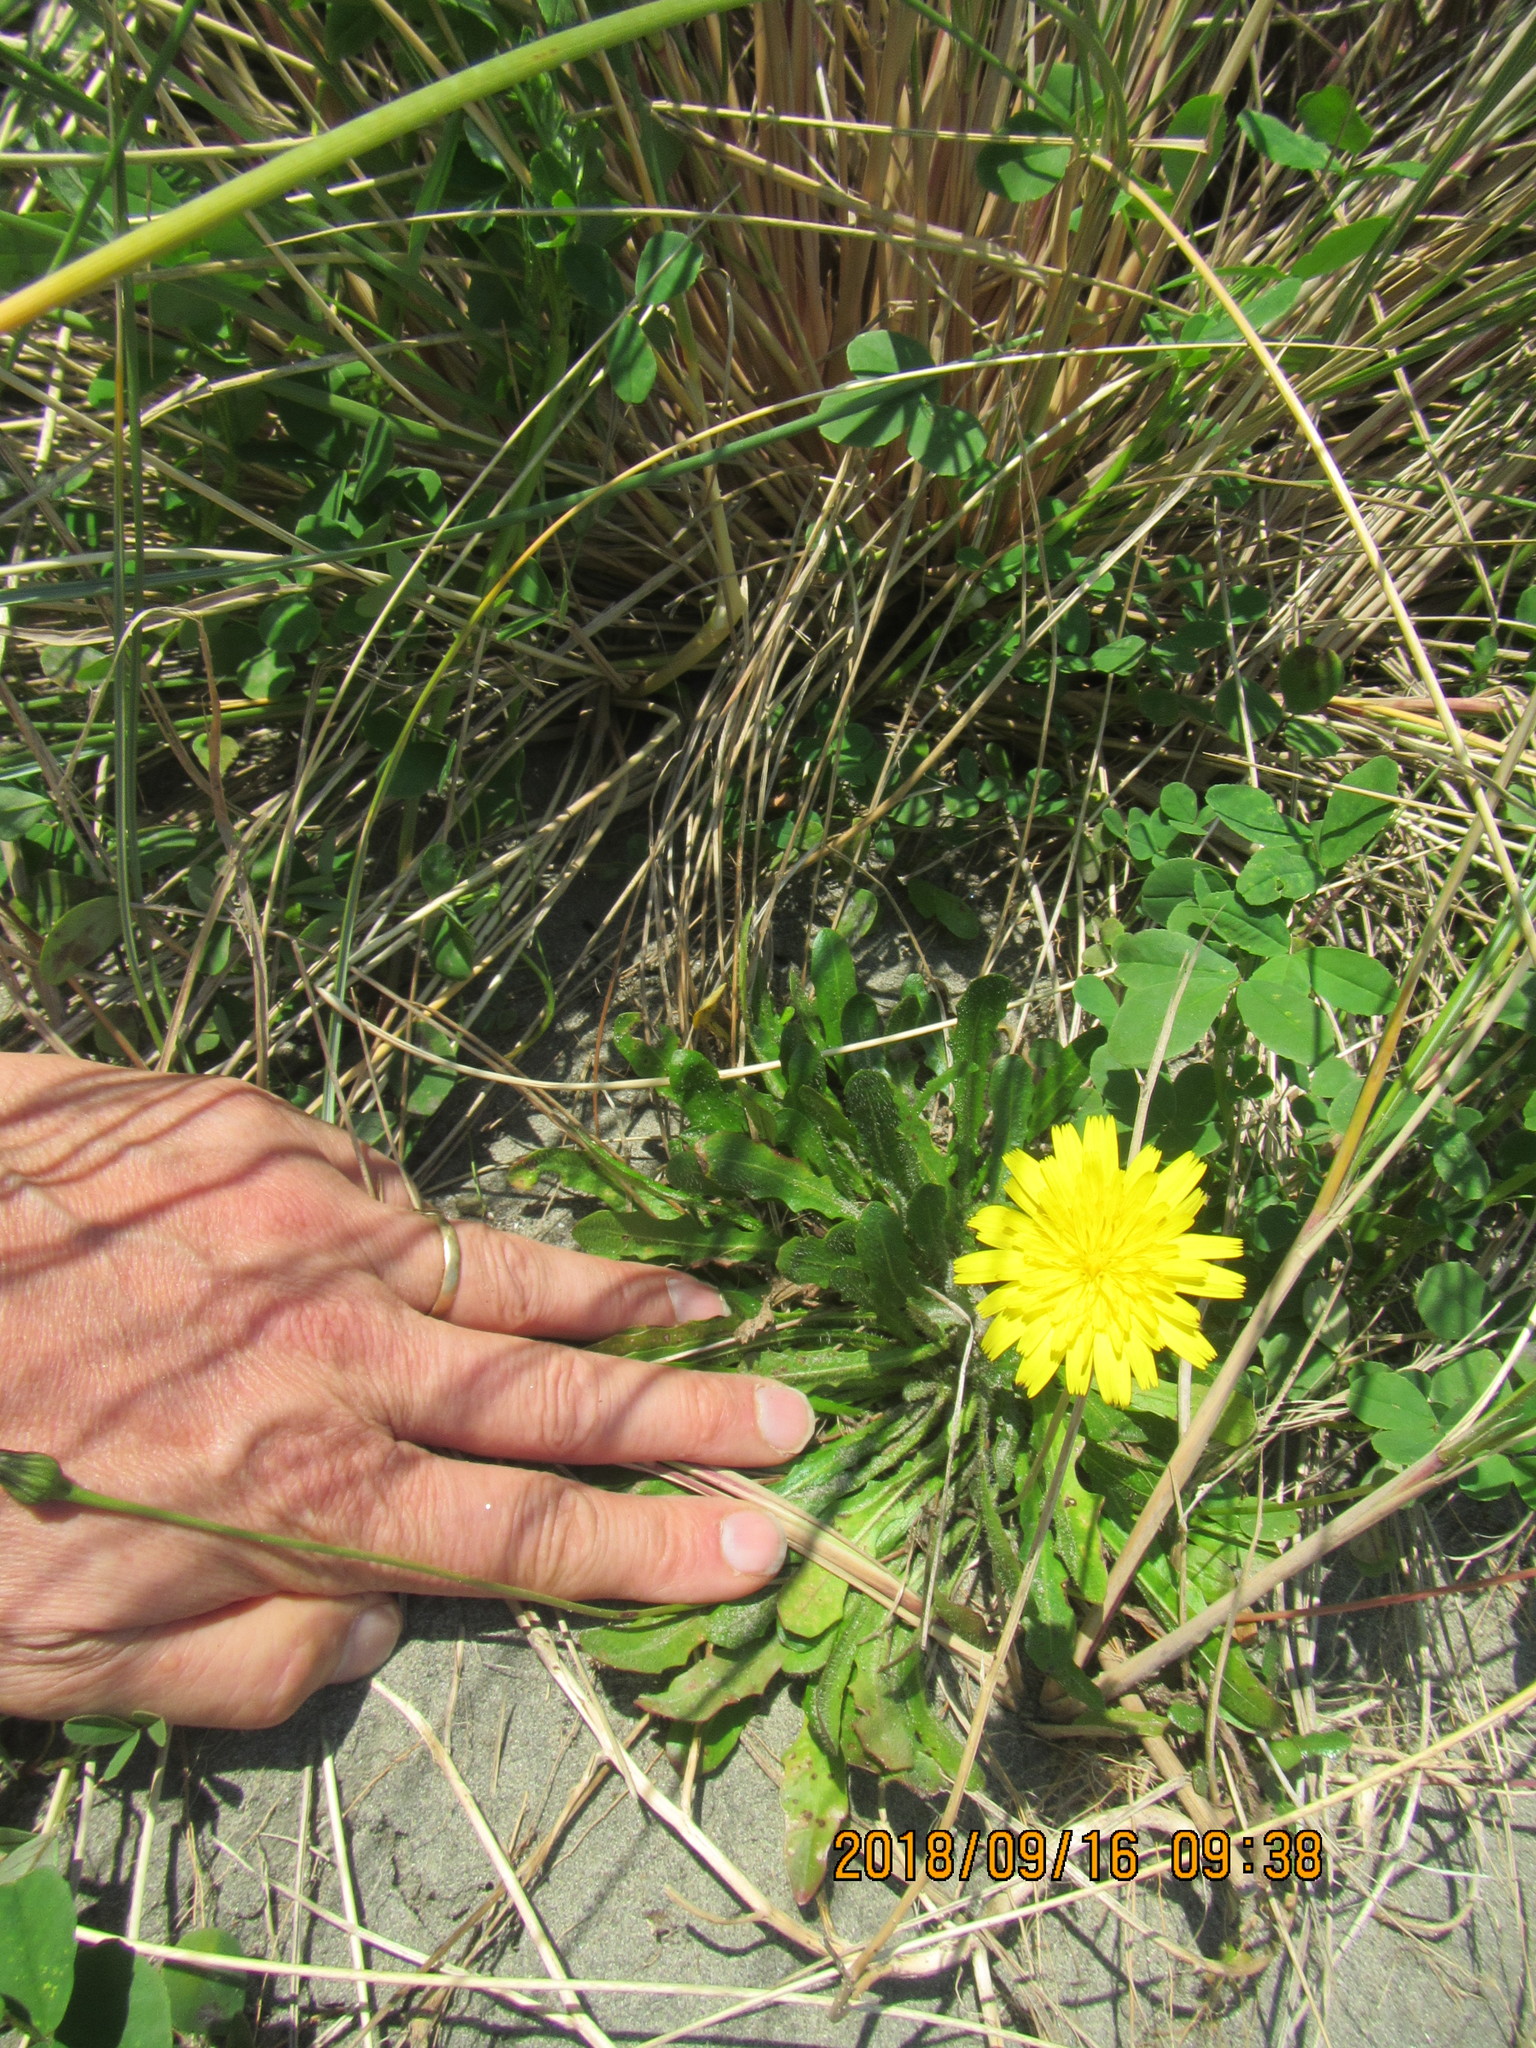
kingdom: Plantae
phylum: Tracheophyta
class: Magnoliopsida
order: Asterales
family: Asteraceae
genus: Hypochaeris
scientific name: Hypochaeris radicata
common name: Flatweed
